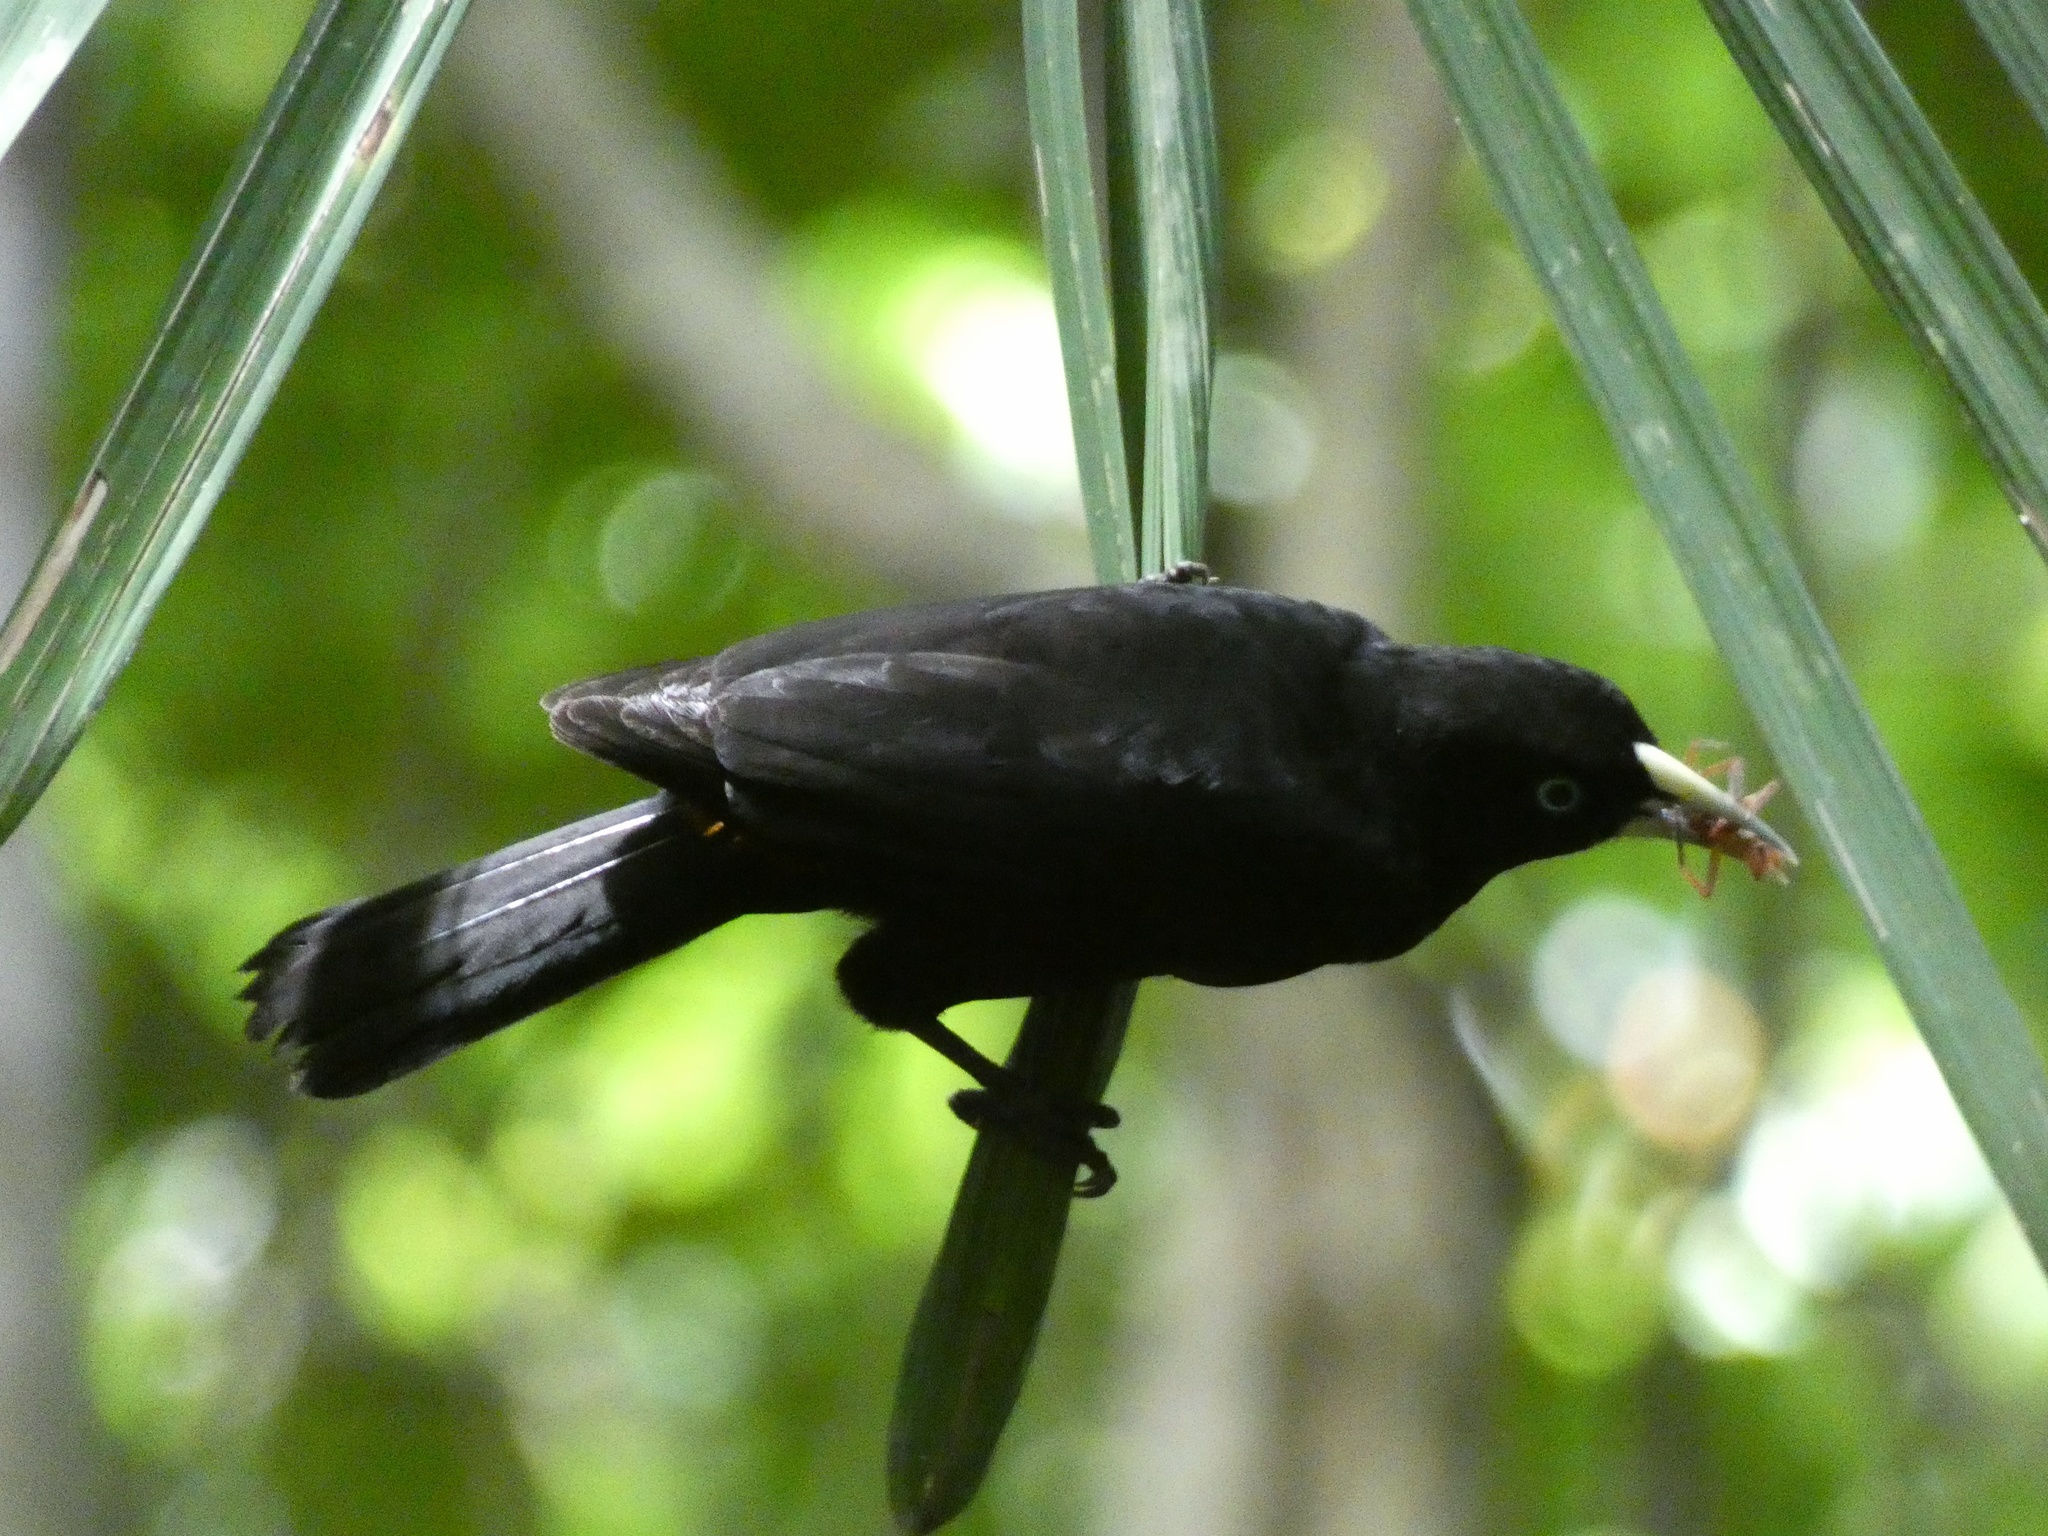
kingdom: Animalia
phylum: Chordata
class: Aves
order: Passeriformes
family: Icteridae
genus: Cacicus
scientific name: Cacicus uropygialis
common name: Scarlet-rumped cacique
